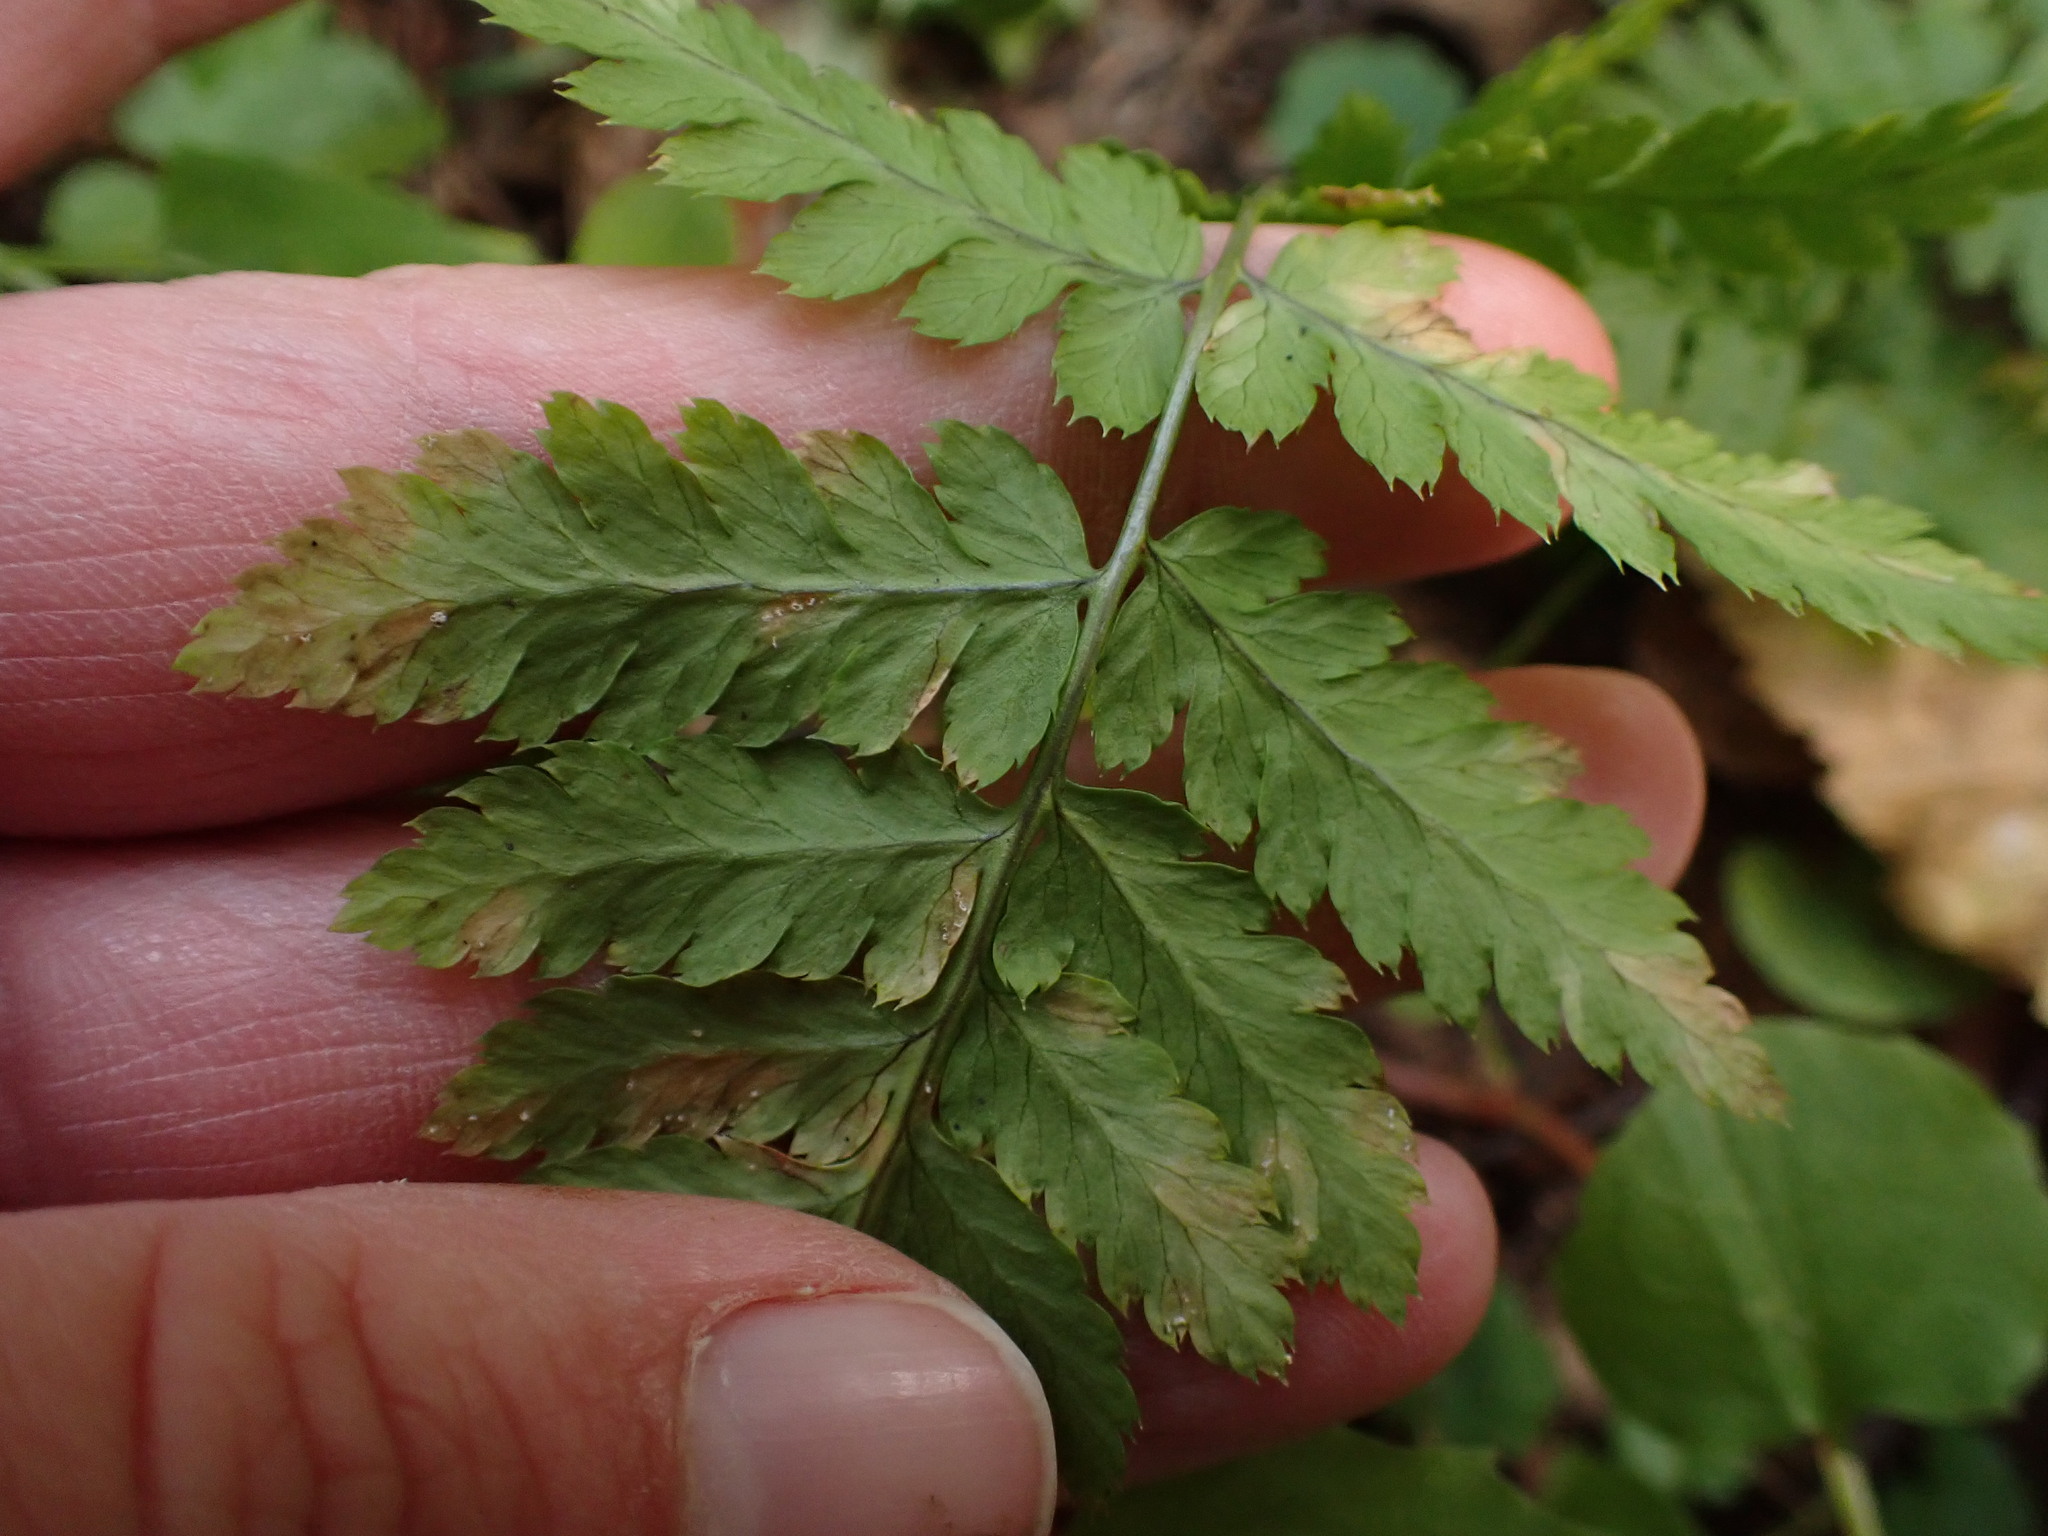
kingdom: Plantae
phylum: Tracheophyta
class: Polypodiopsida
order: Polypodiales
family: Dryopteridaceae
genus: Dryopteris
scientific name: Dryopteris carthusiana
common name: Narrow buckler-fern
